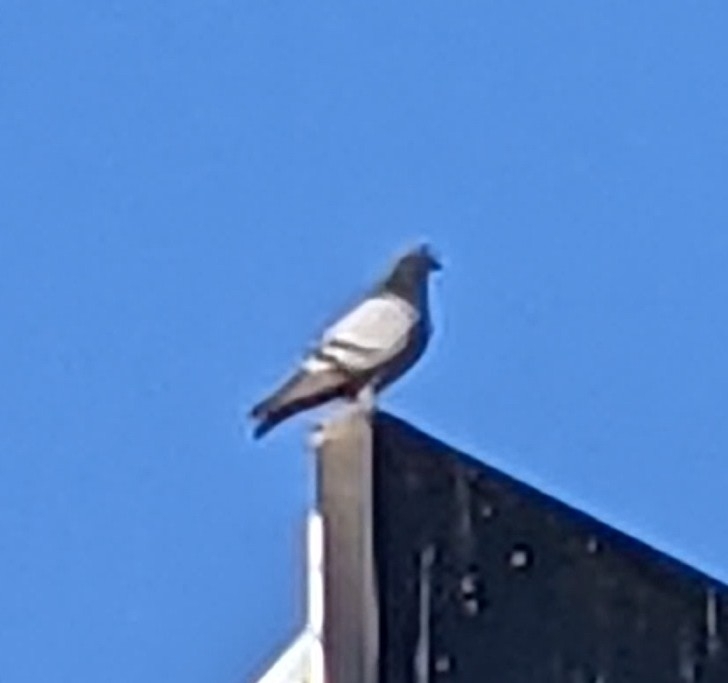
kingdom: Animalia
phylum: Chordata
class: Aves
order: Columbiformes
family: Columbidae
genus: Columba
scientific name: Columba livia
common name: Rock pigeon
